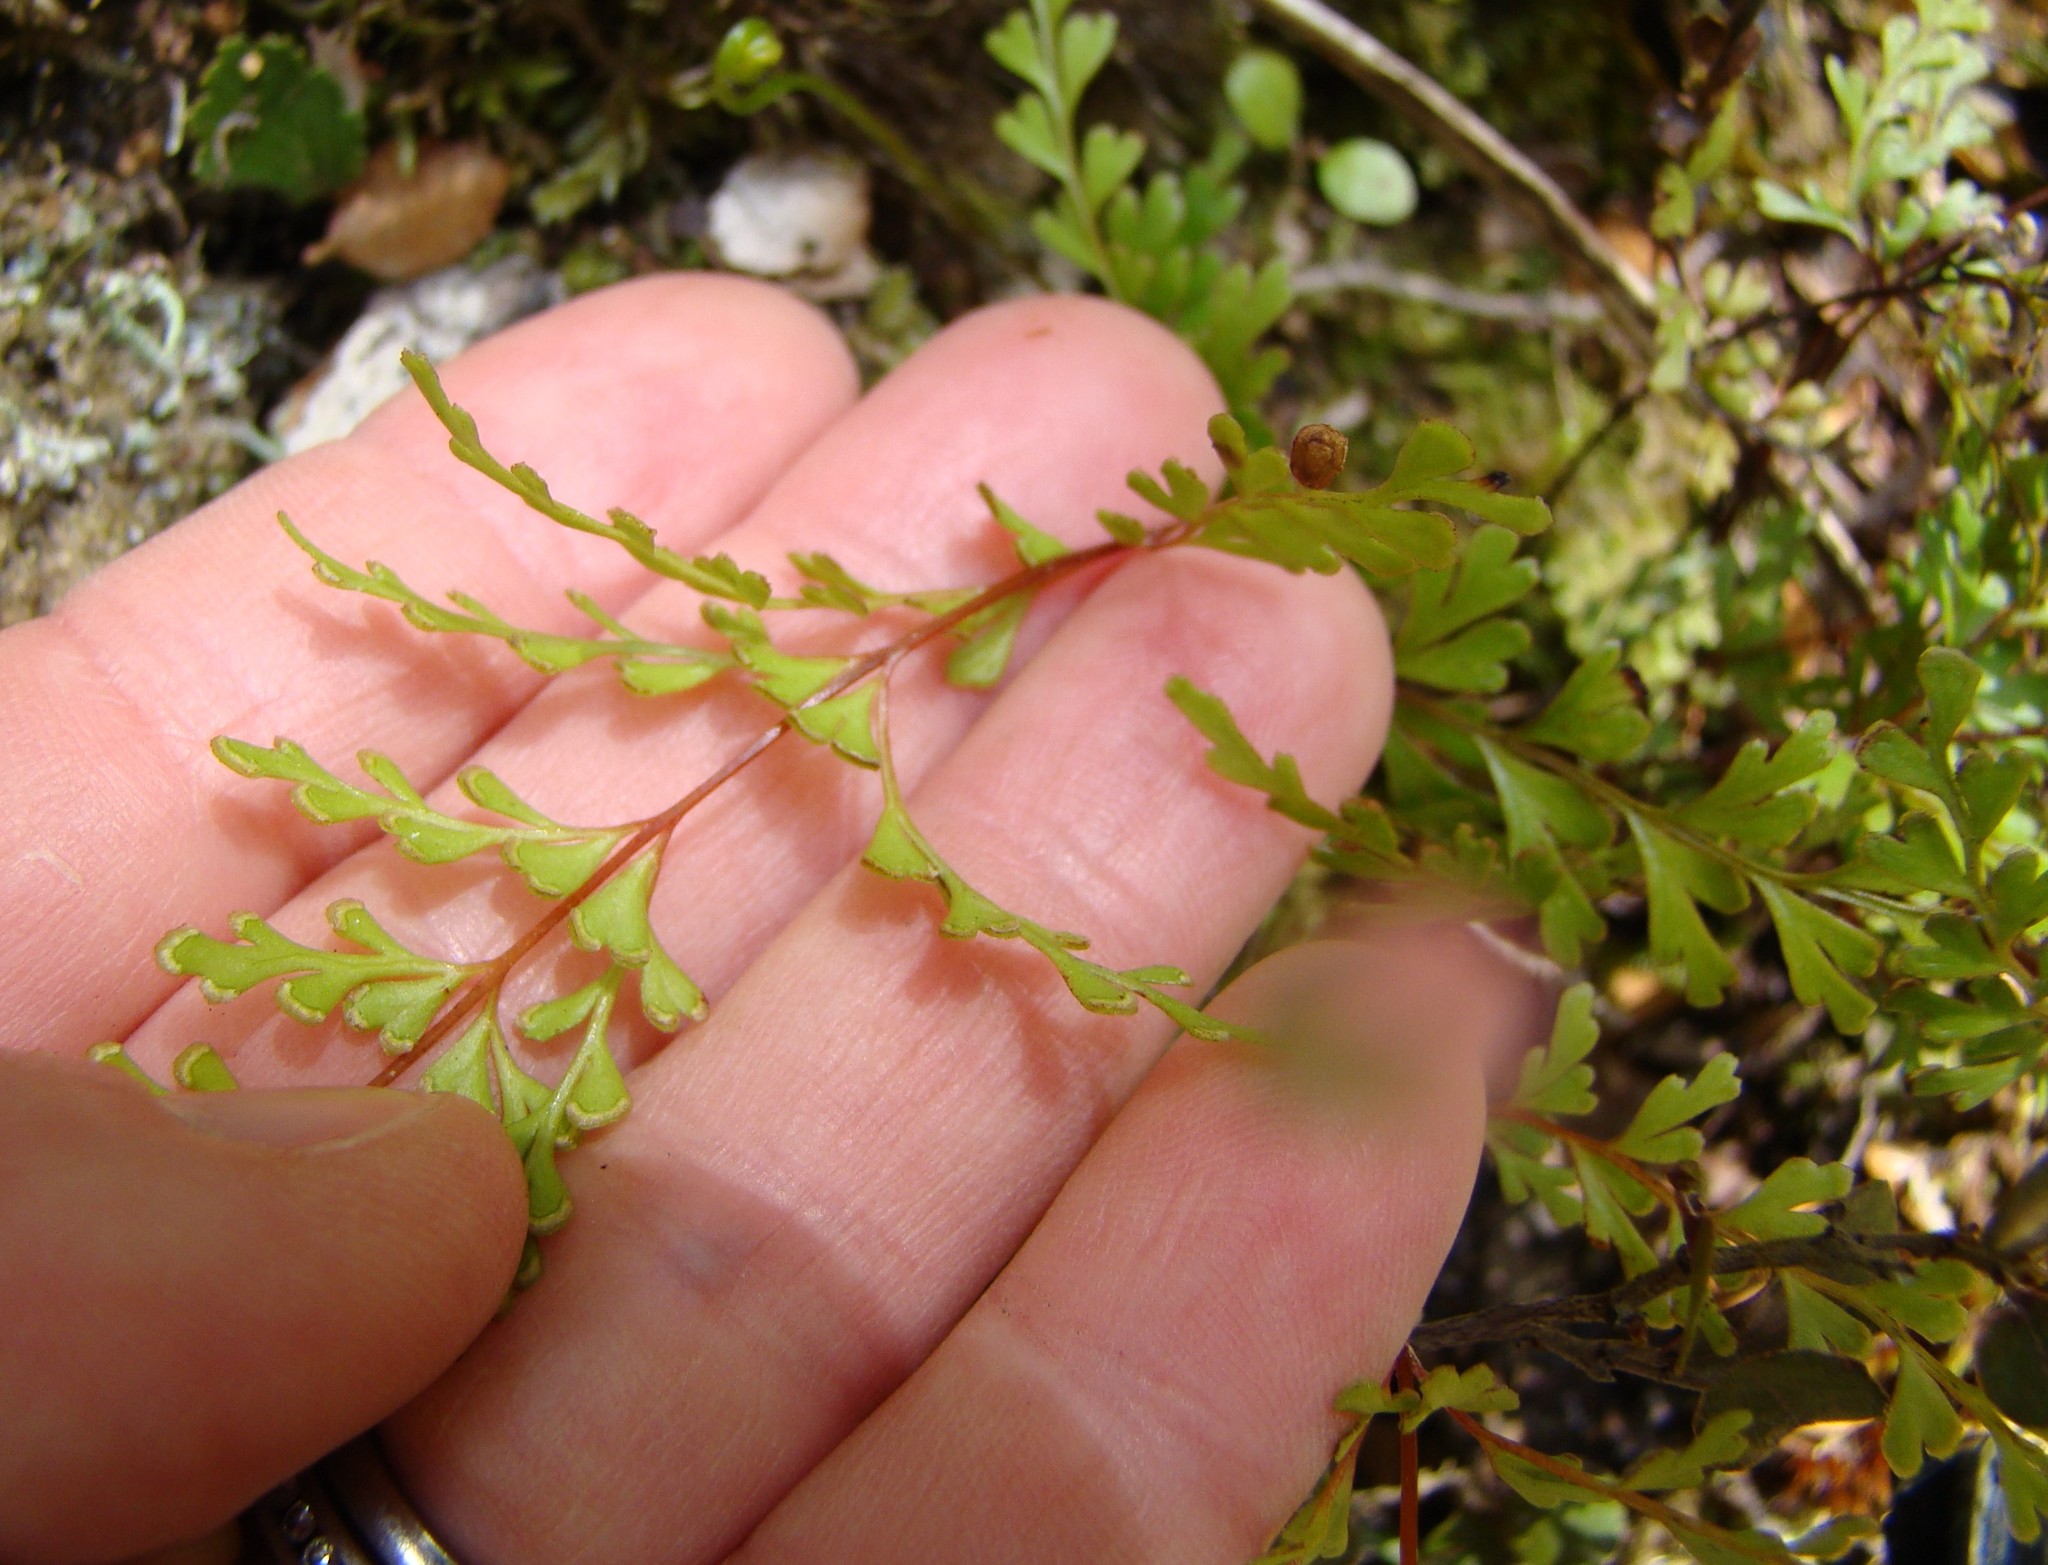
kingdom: Plantae
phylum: Tracheophyta
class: Polypodiopsida
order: Polypodiales
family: Lindsaeaceae
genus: Lindsaea
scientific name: Lindsaea trichomanoides
